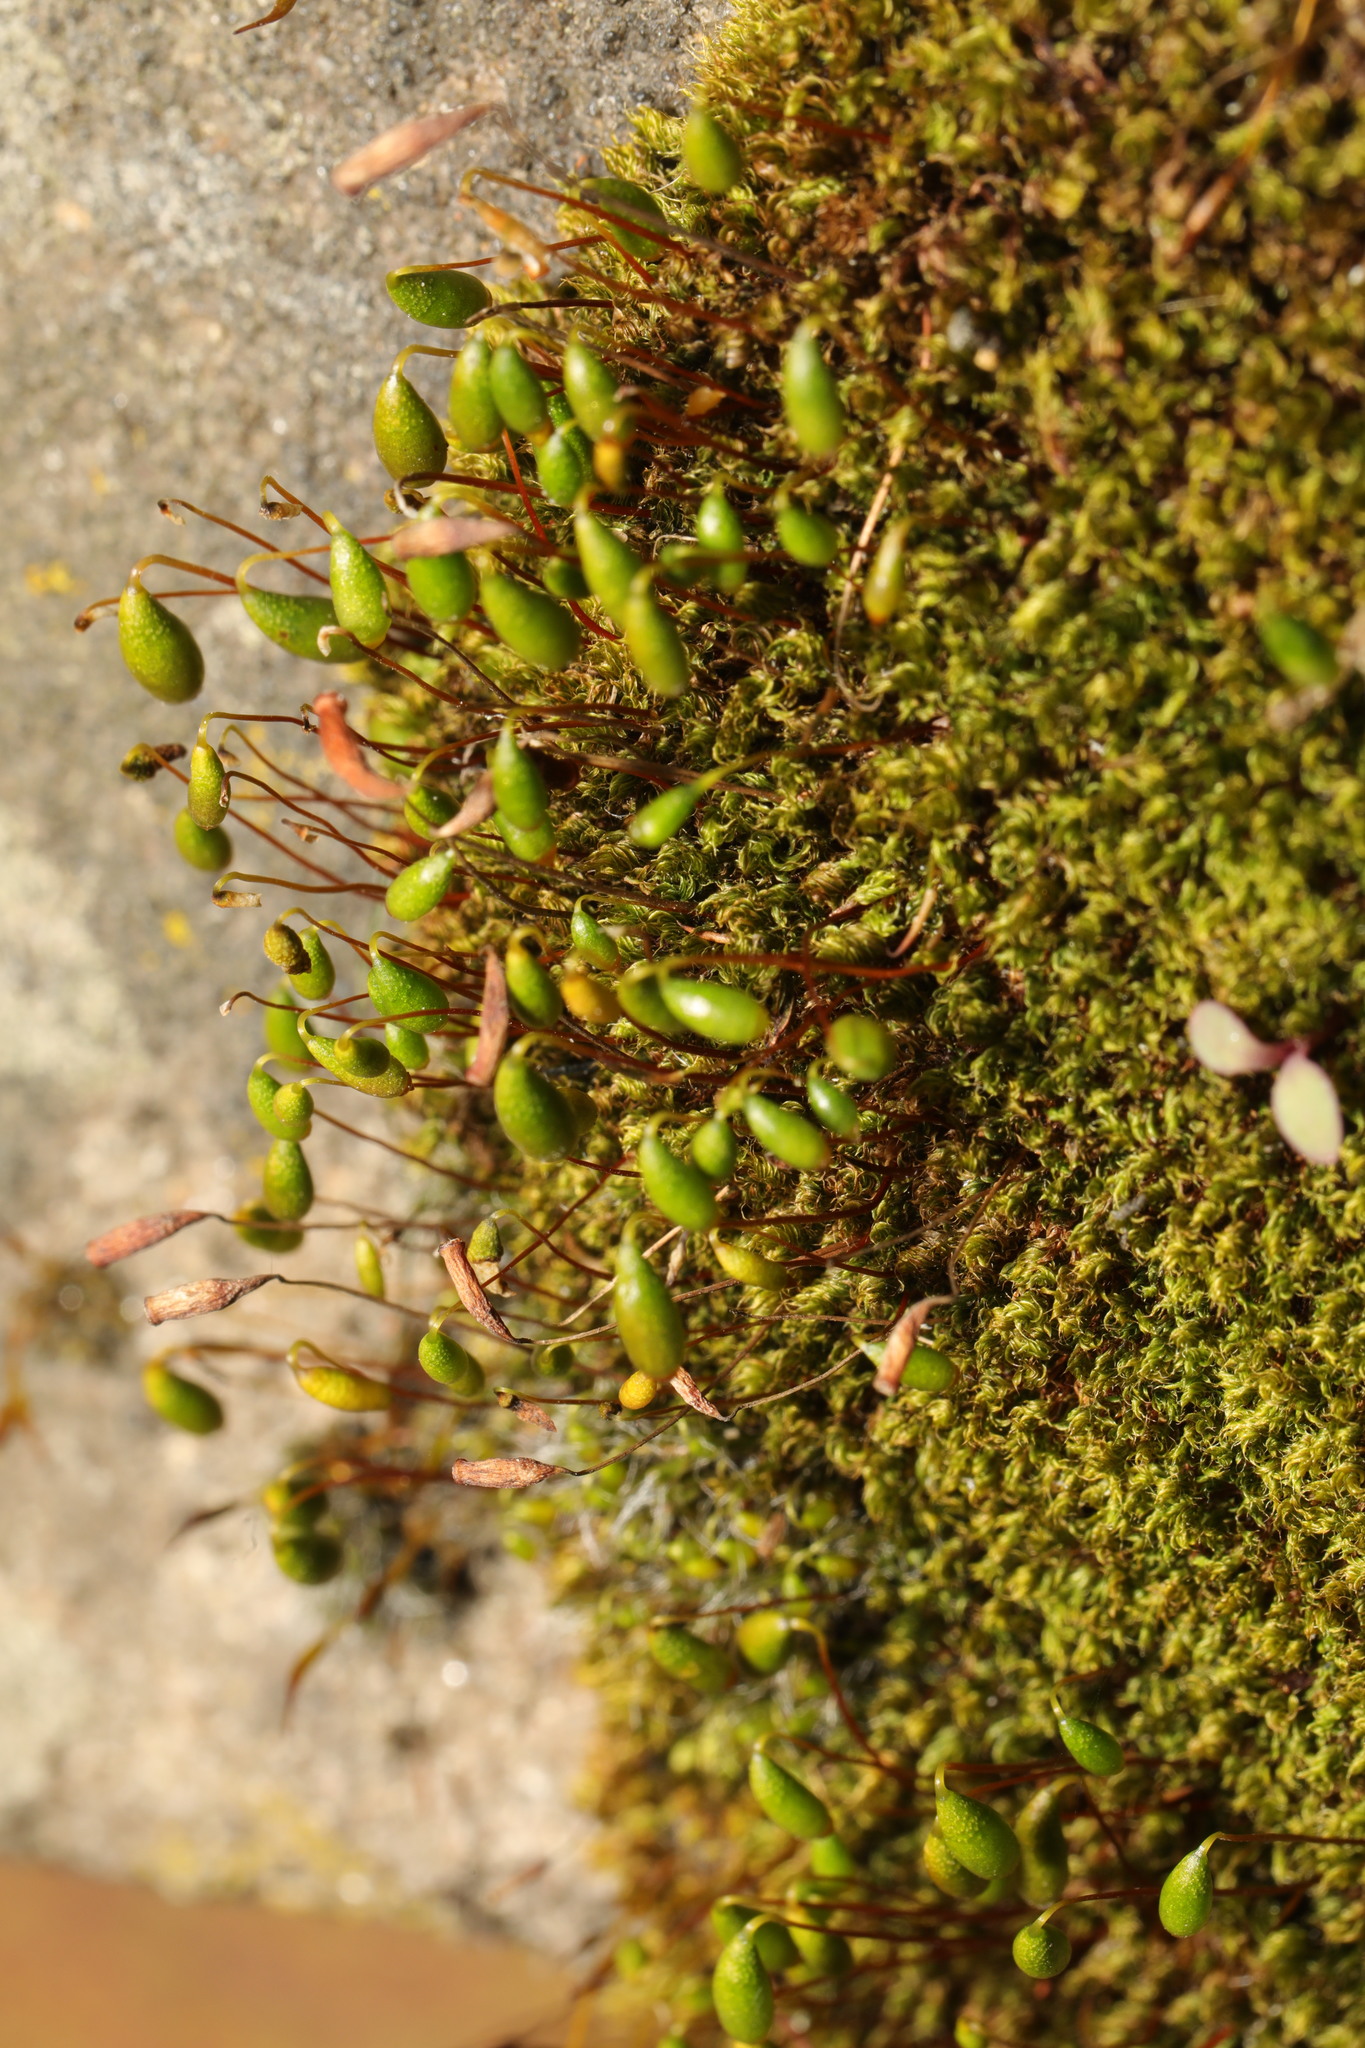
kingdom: Plantae
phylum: Bryophyta
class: Bryopsida
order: Bryales
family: Bryaceae
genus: Rosulabryum
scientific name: Rosulabryum capillare
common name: Capillary thread-moss
